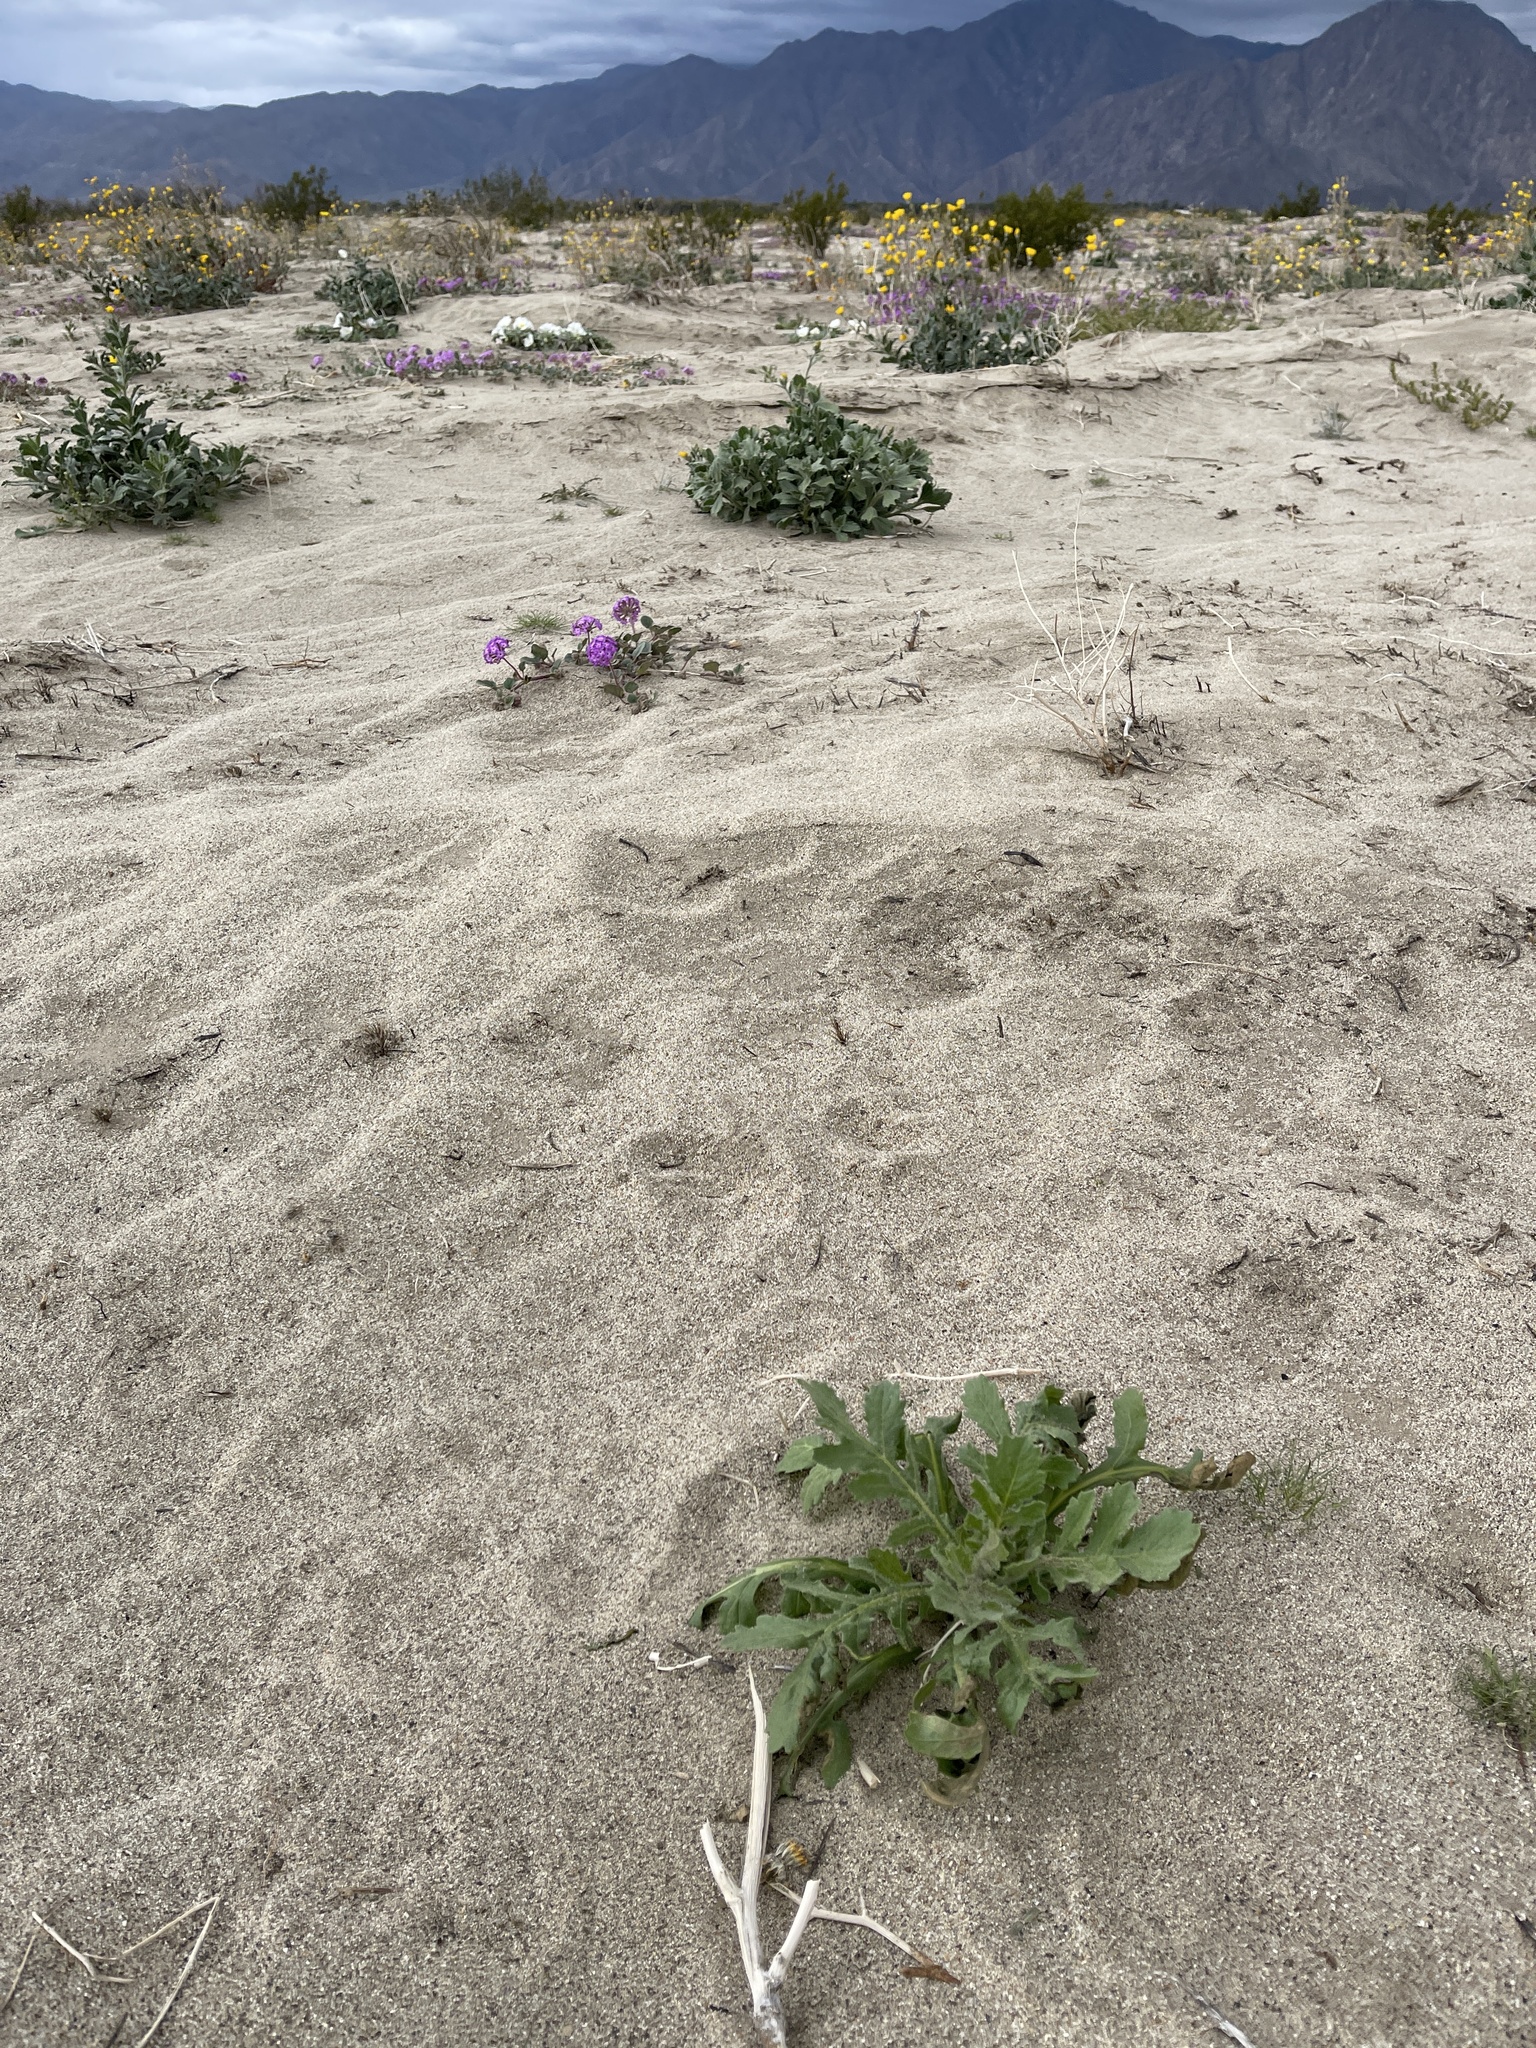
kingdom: Plantae
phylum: Tracheophyta
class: Magnoliopsida
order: Asterales
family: Asteraceae
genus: Volutaria
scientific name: Volutaria tubuliflora
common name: Desert knapweed
